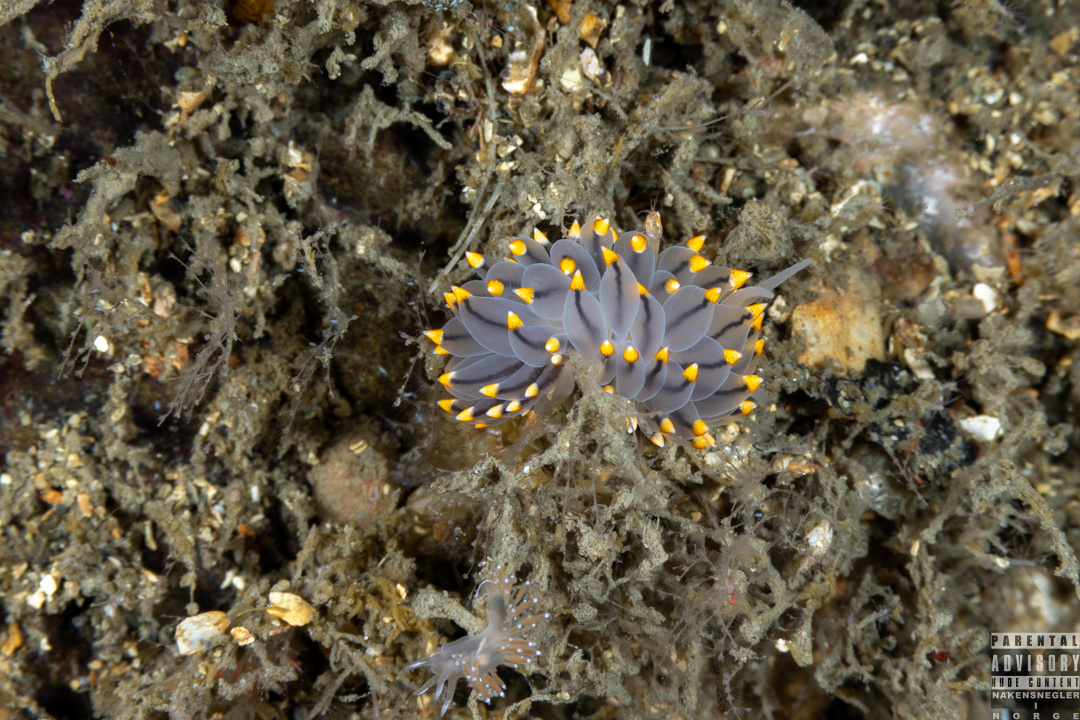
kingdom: Animalia
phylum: Mollusca
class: Gastropoda
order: Nudibranchia
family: Eubranchidae
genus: Eubranchus
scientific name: Eubranchus tricolor
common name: Painted balloon aeolis
